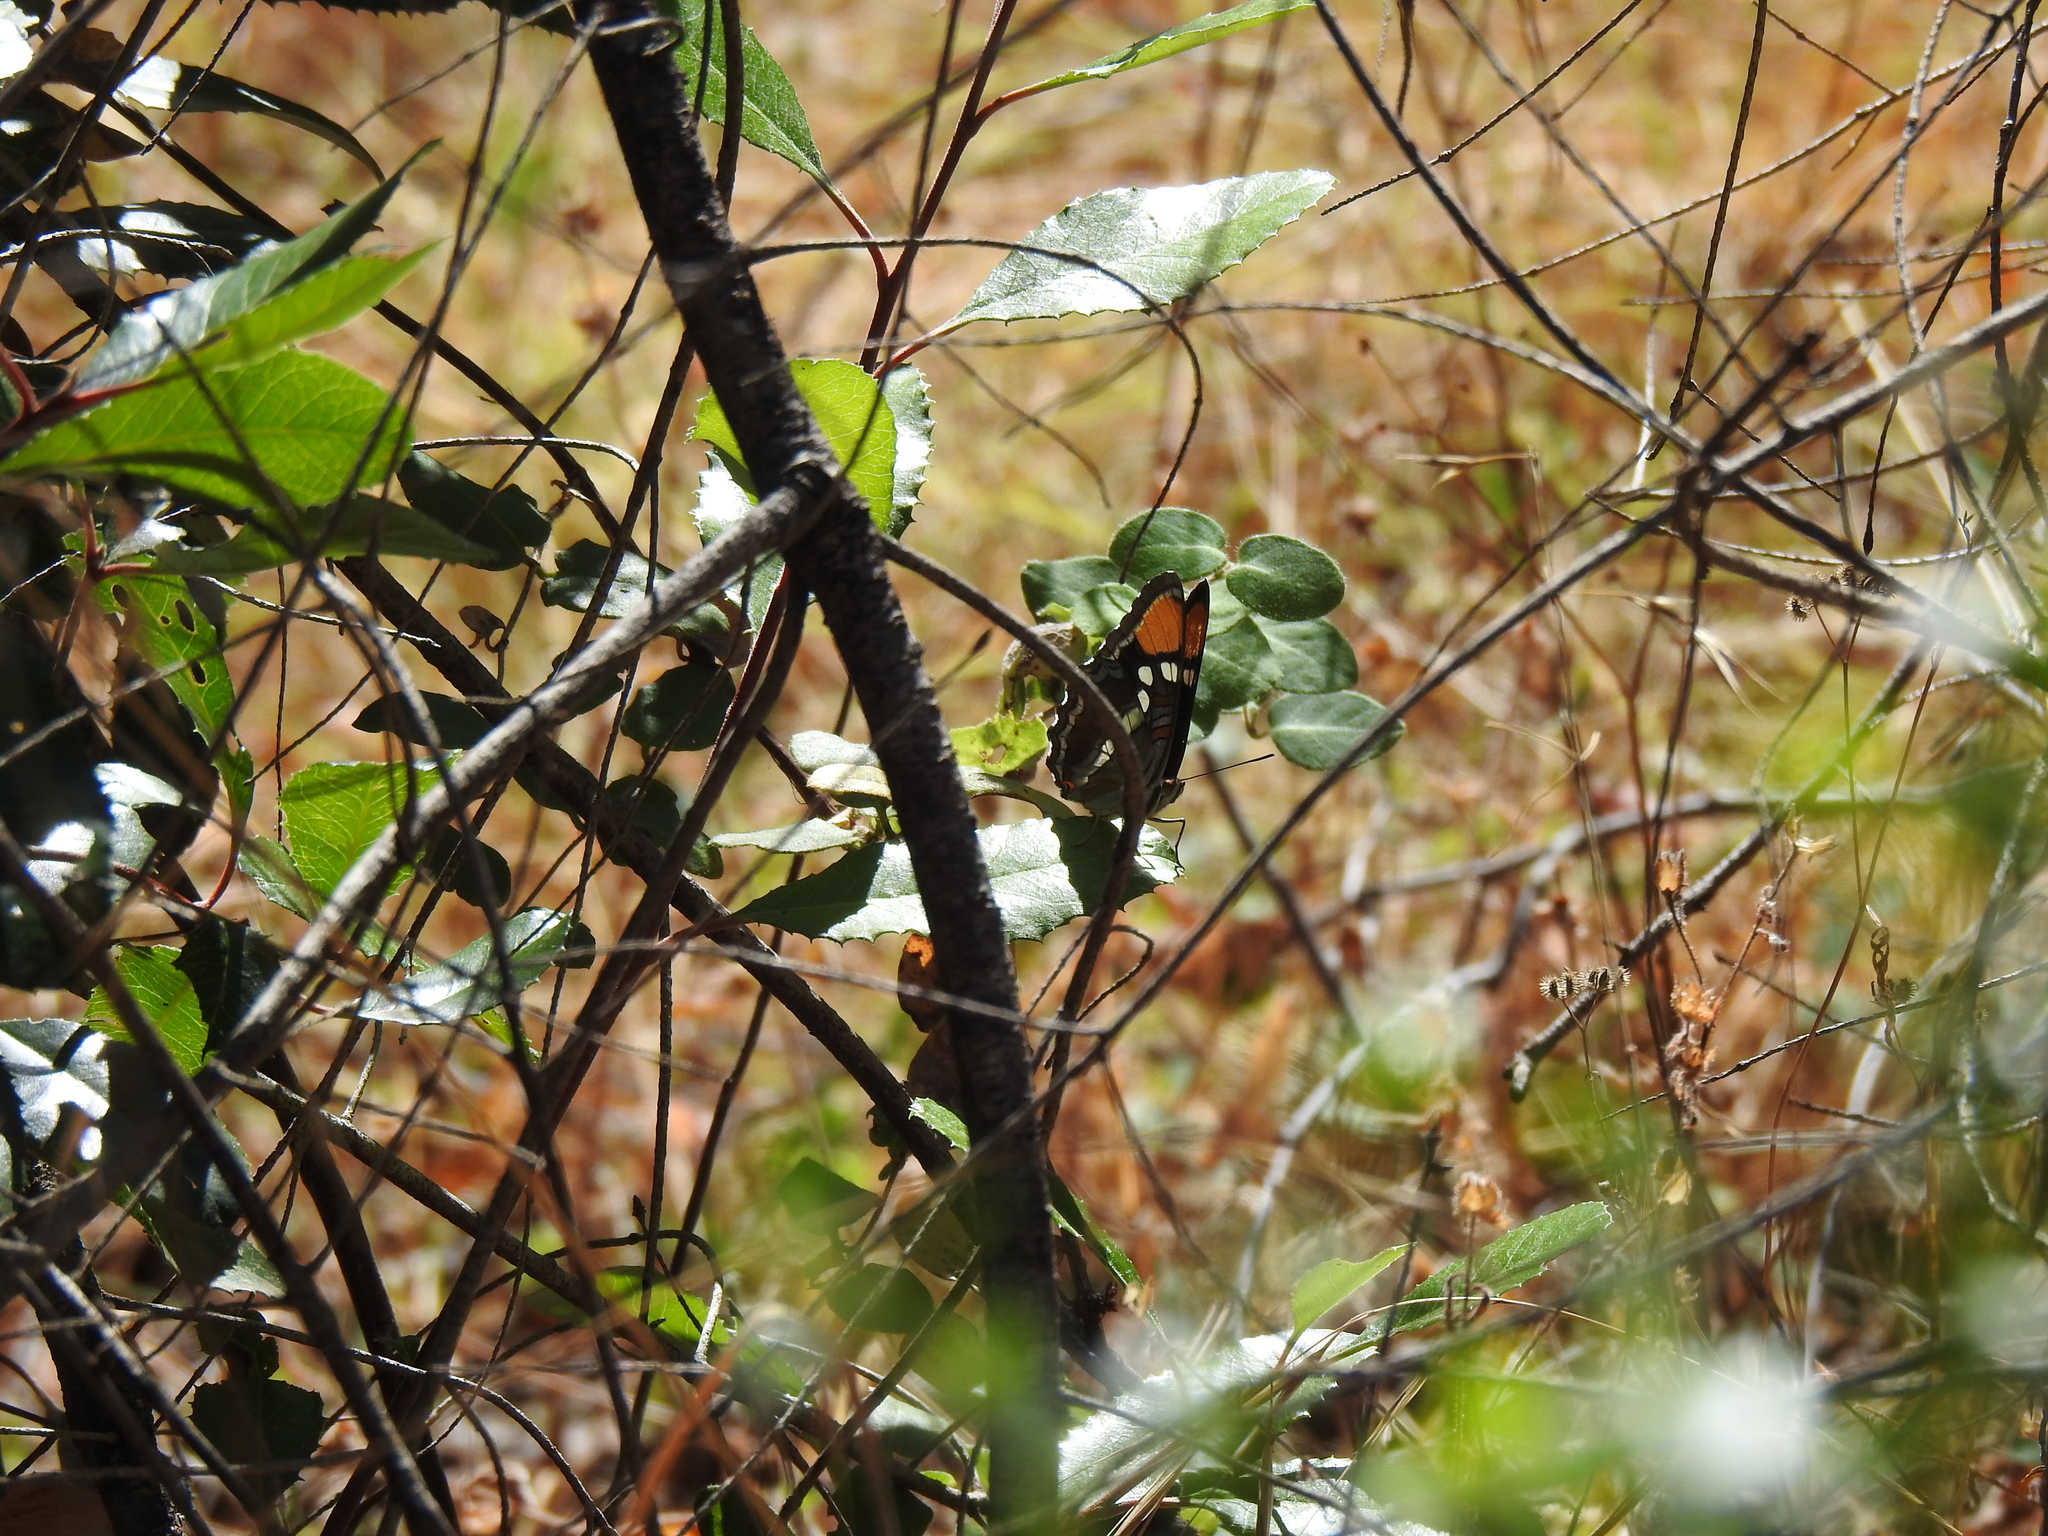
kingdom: Animalia
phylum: Arthropoda
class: Insecta
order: Lepidoptera
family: Nymphalidae
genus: Limenitis
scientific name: Limenitis bredowii
